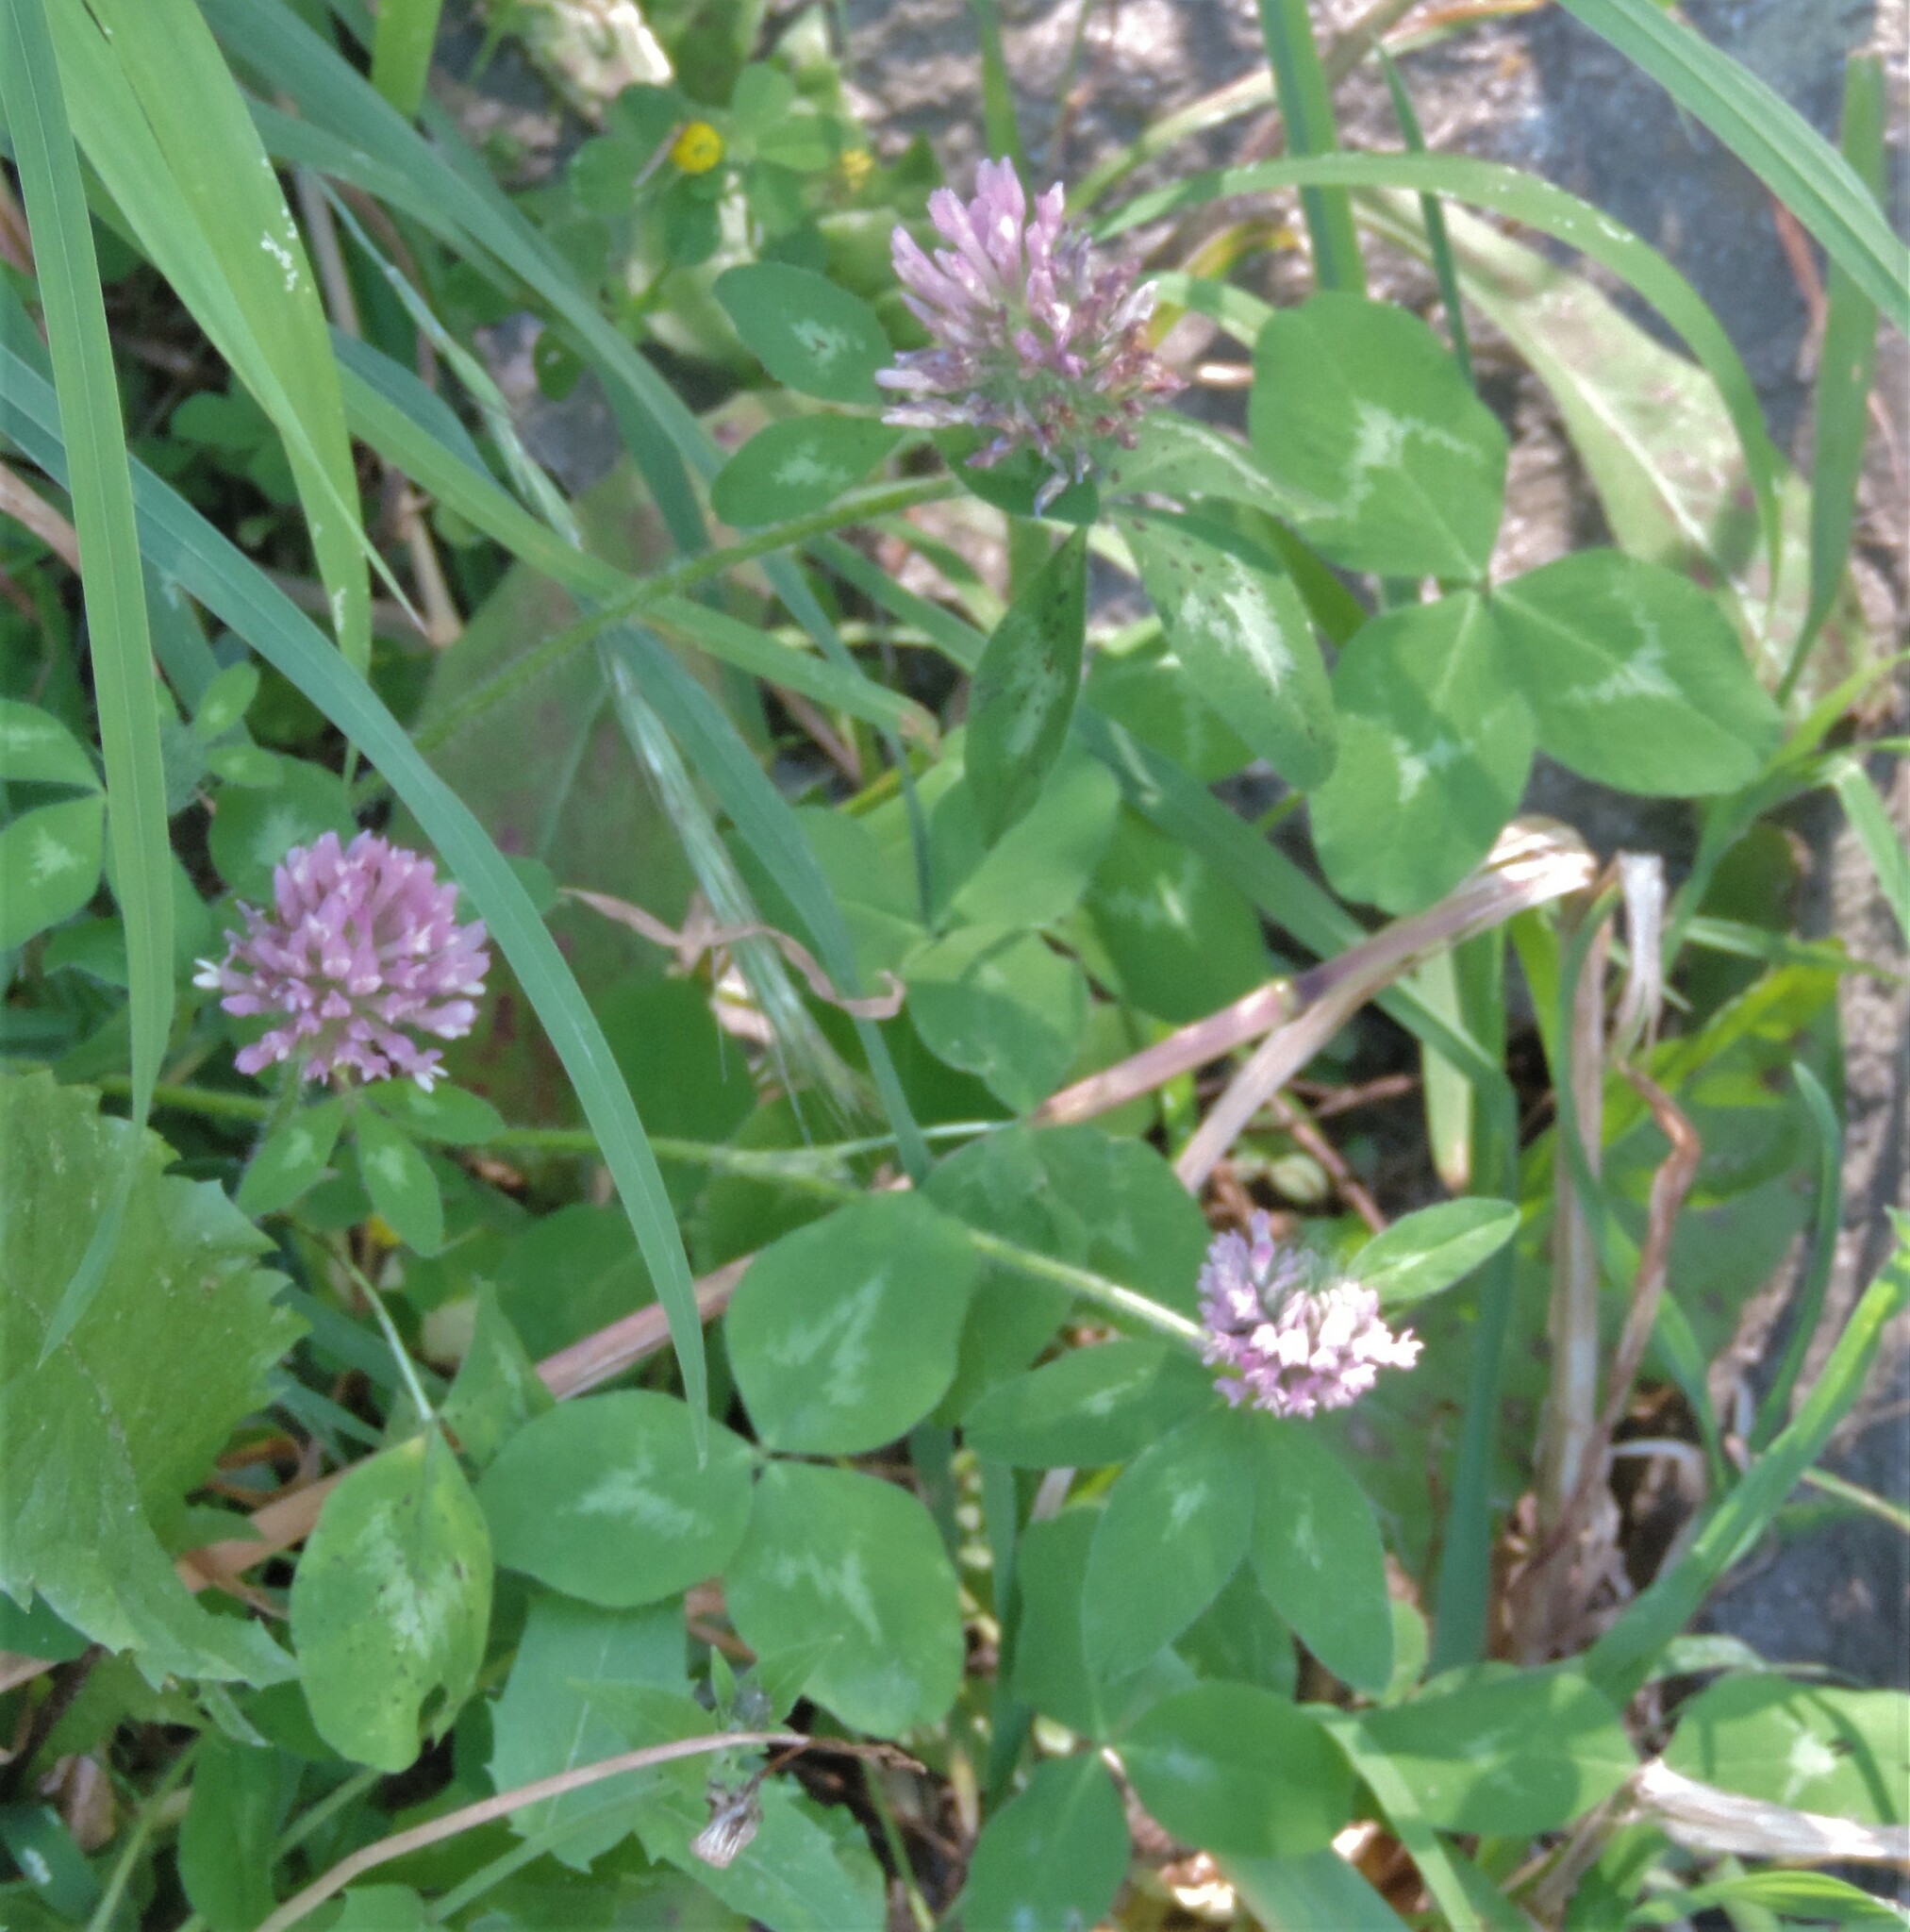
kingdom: Plantae
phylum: Tracheophyta
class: Magnoliopsida
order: Fabales
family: Fabaceae
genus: Trifolium
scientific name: Trifolium pratense
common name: Red clover
